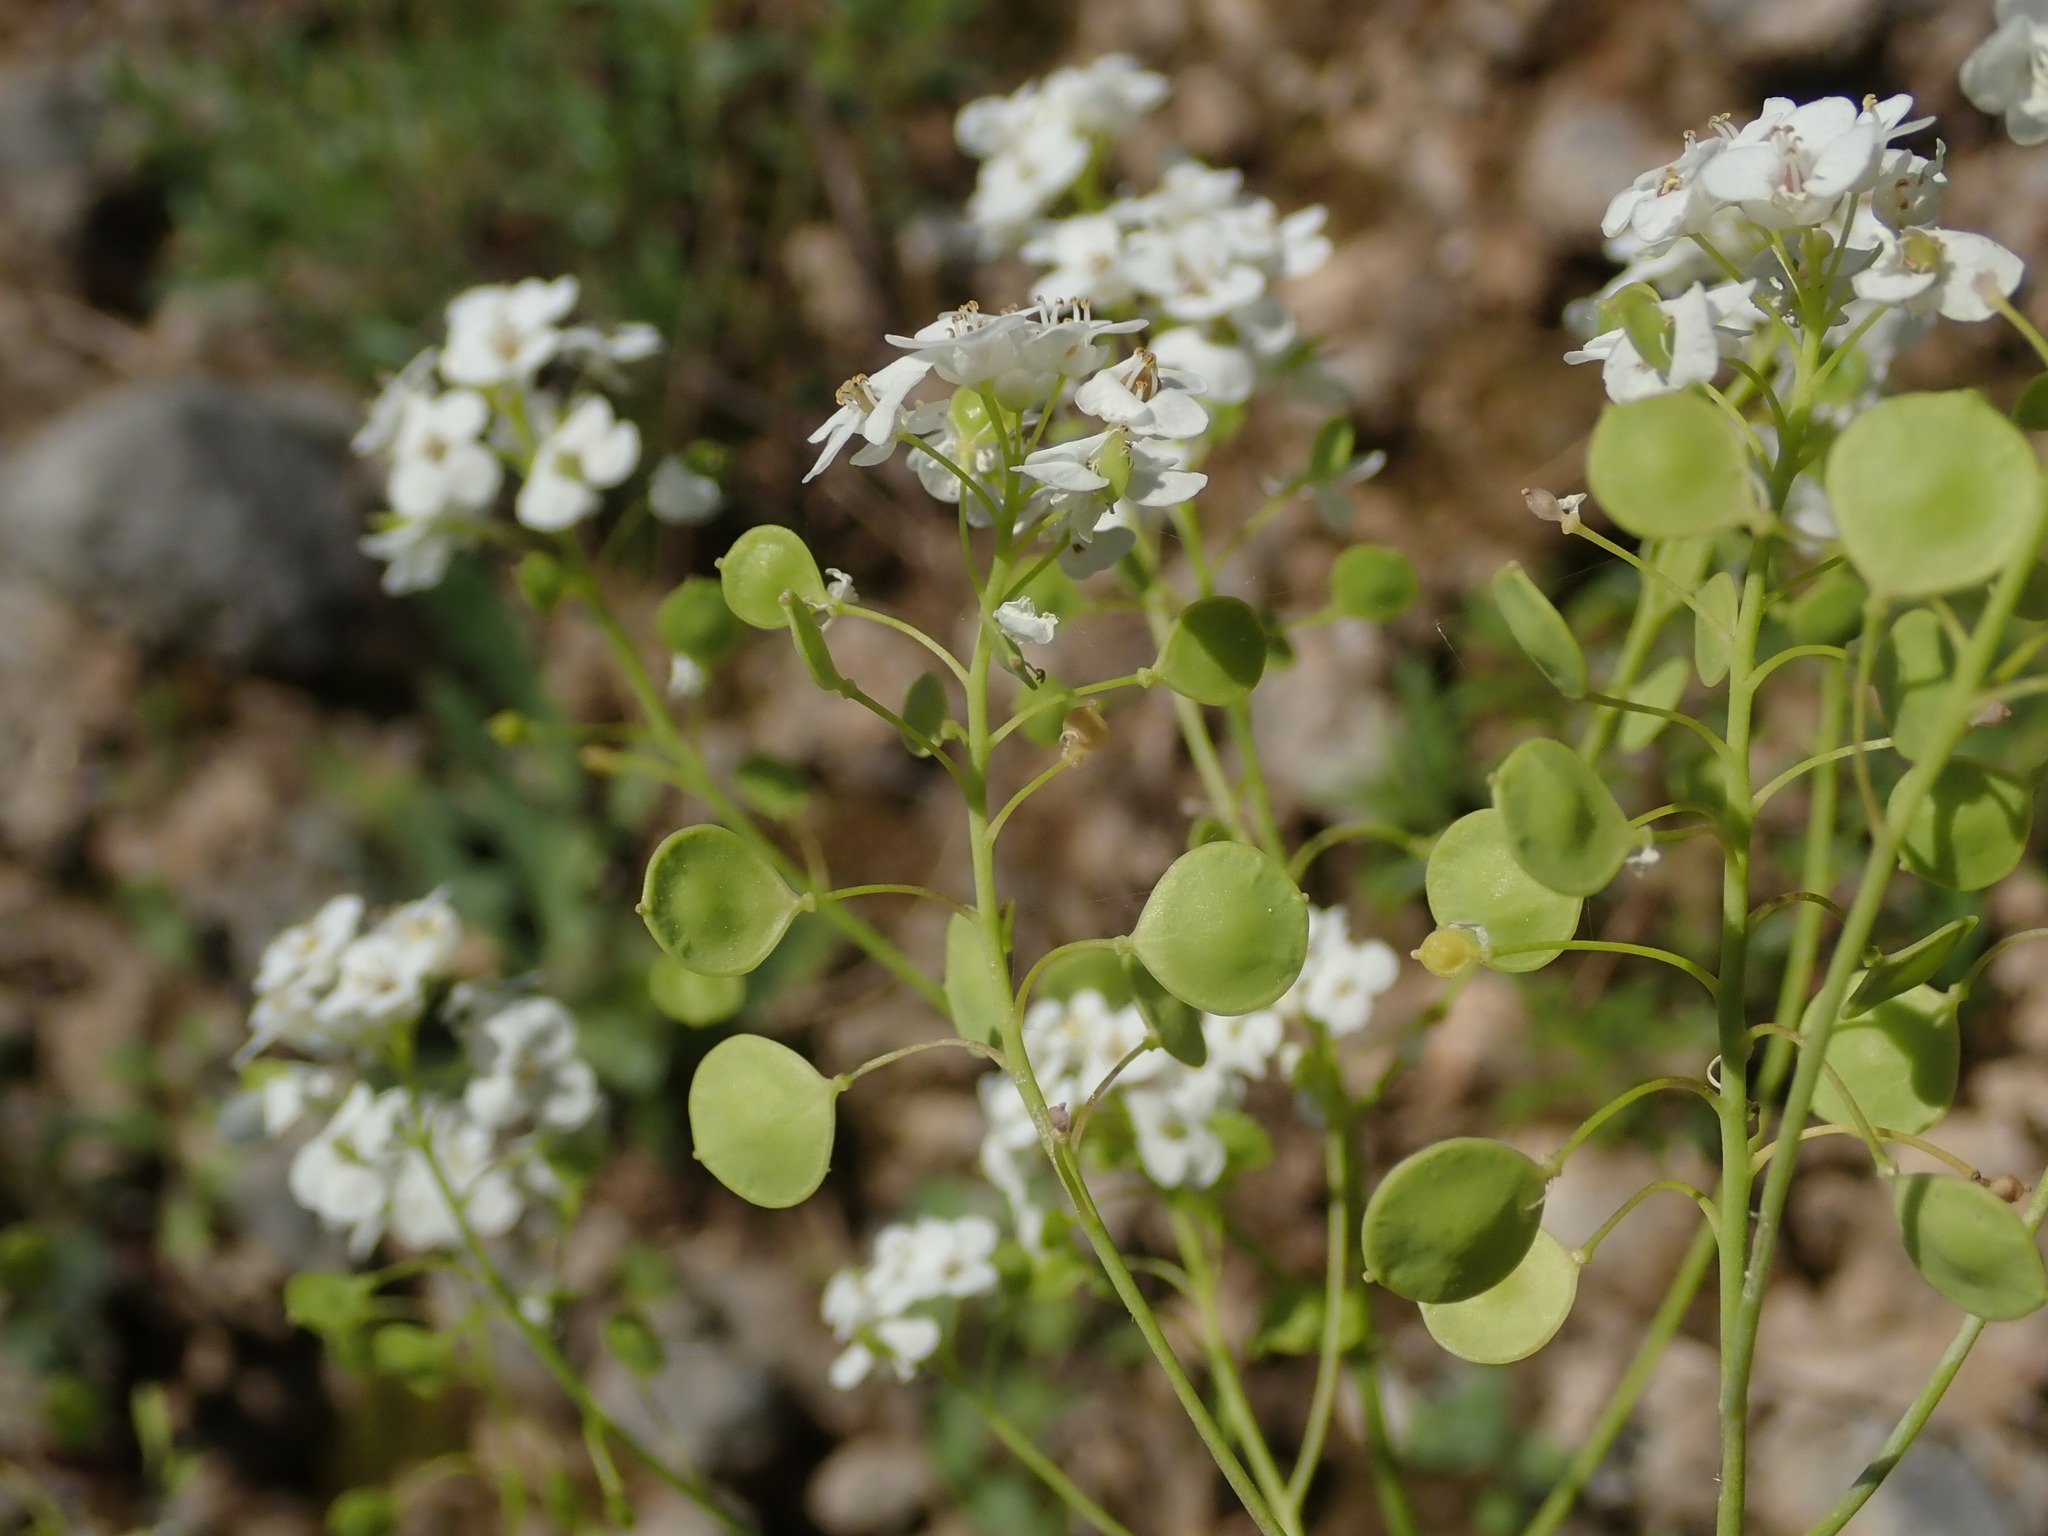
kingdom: Plantae
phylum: Tracheophyta
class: Magnoliopsida
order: Brassicales
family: Brassicaceae
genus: Peltaria
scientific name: Peltaria alliacea
